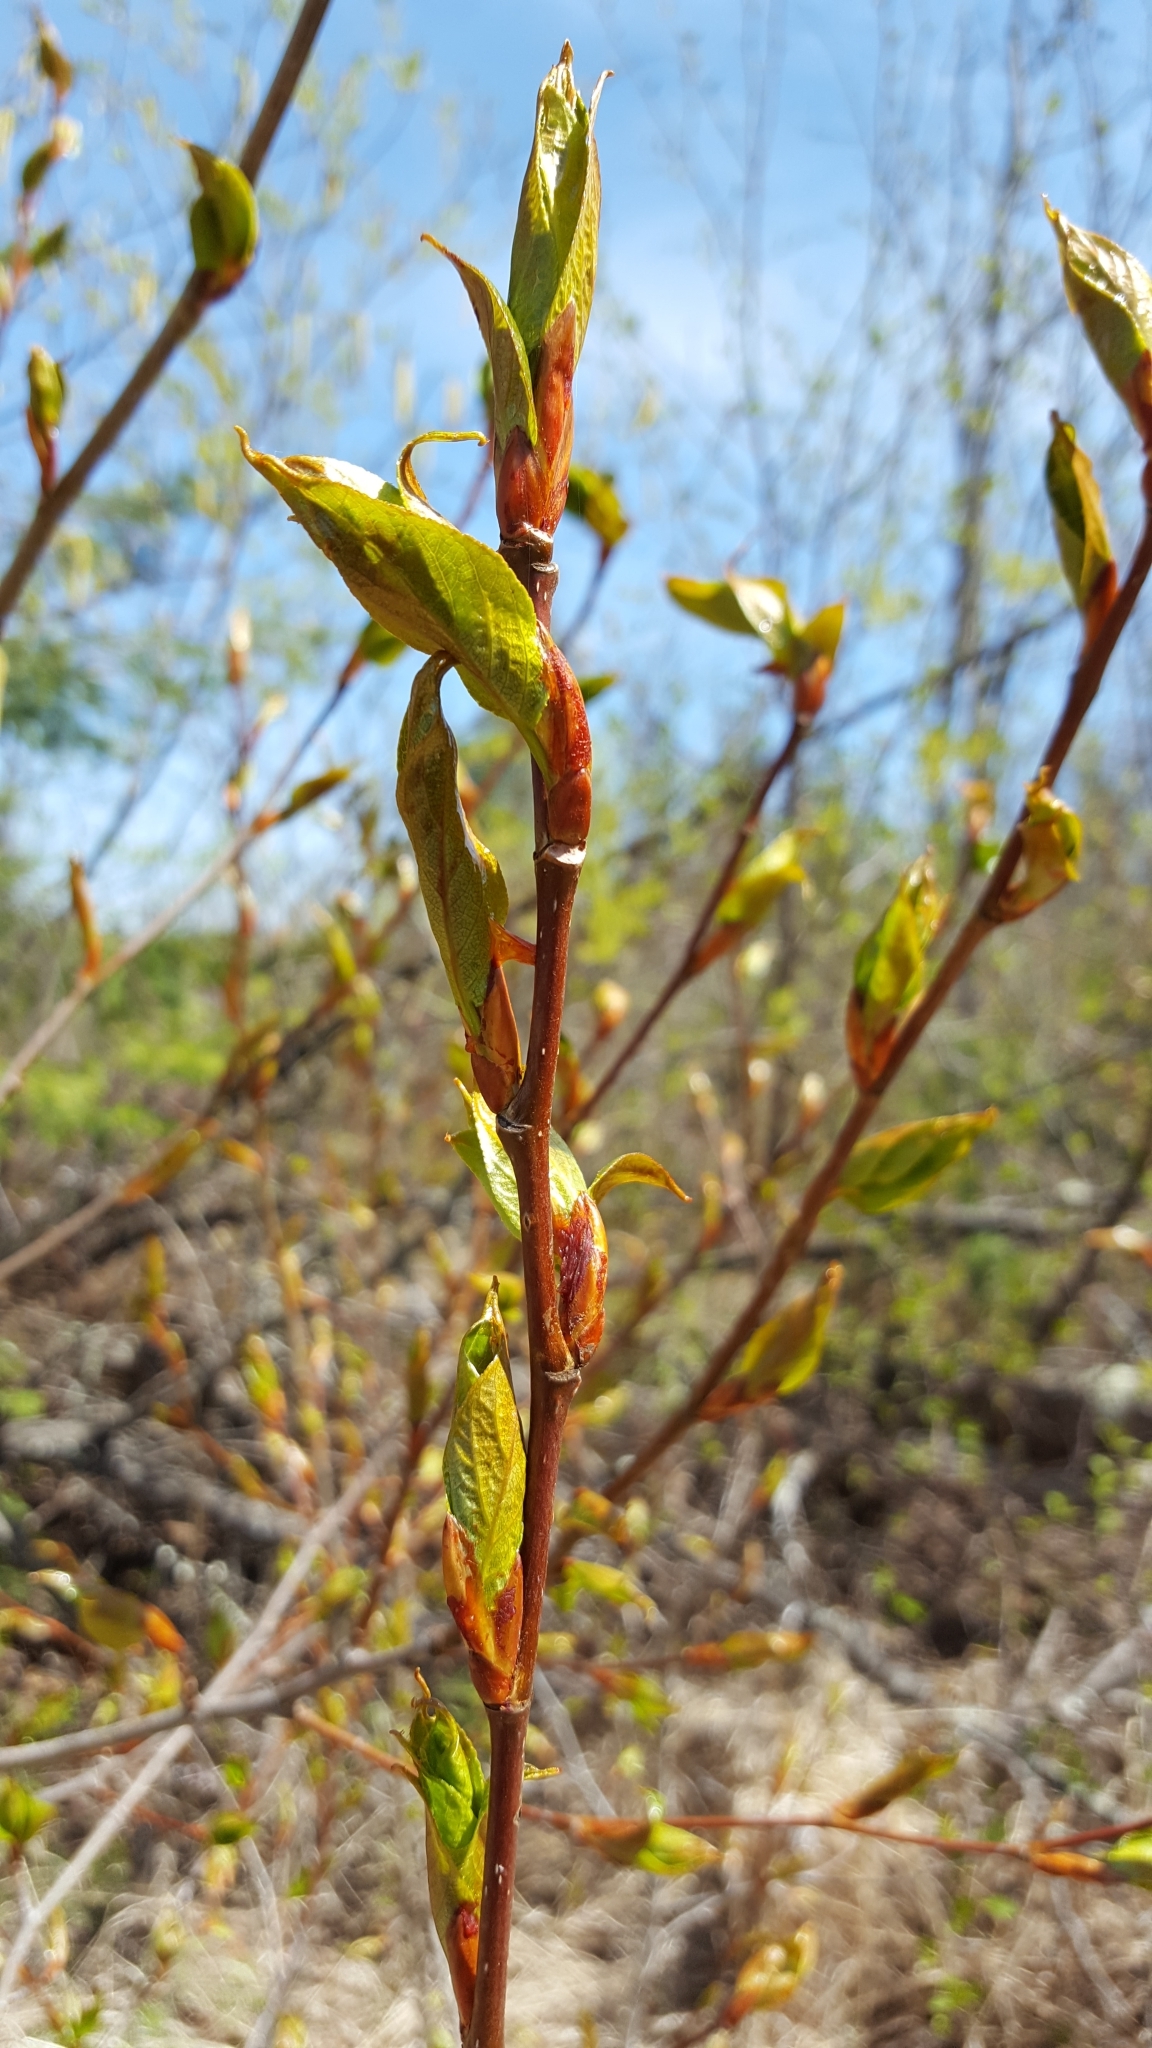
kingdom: Plantae
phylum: Tracheophyta
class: Magnoliopsida
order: Malpighiales
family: Salicaceae
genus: Populus
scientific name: Populus balsamifera
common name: Balsam poplar
